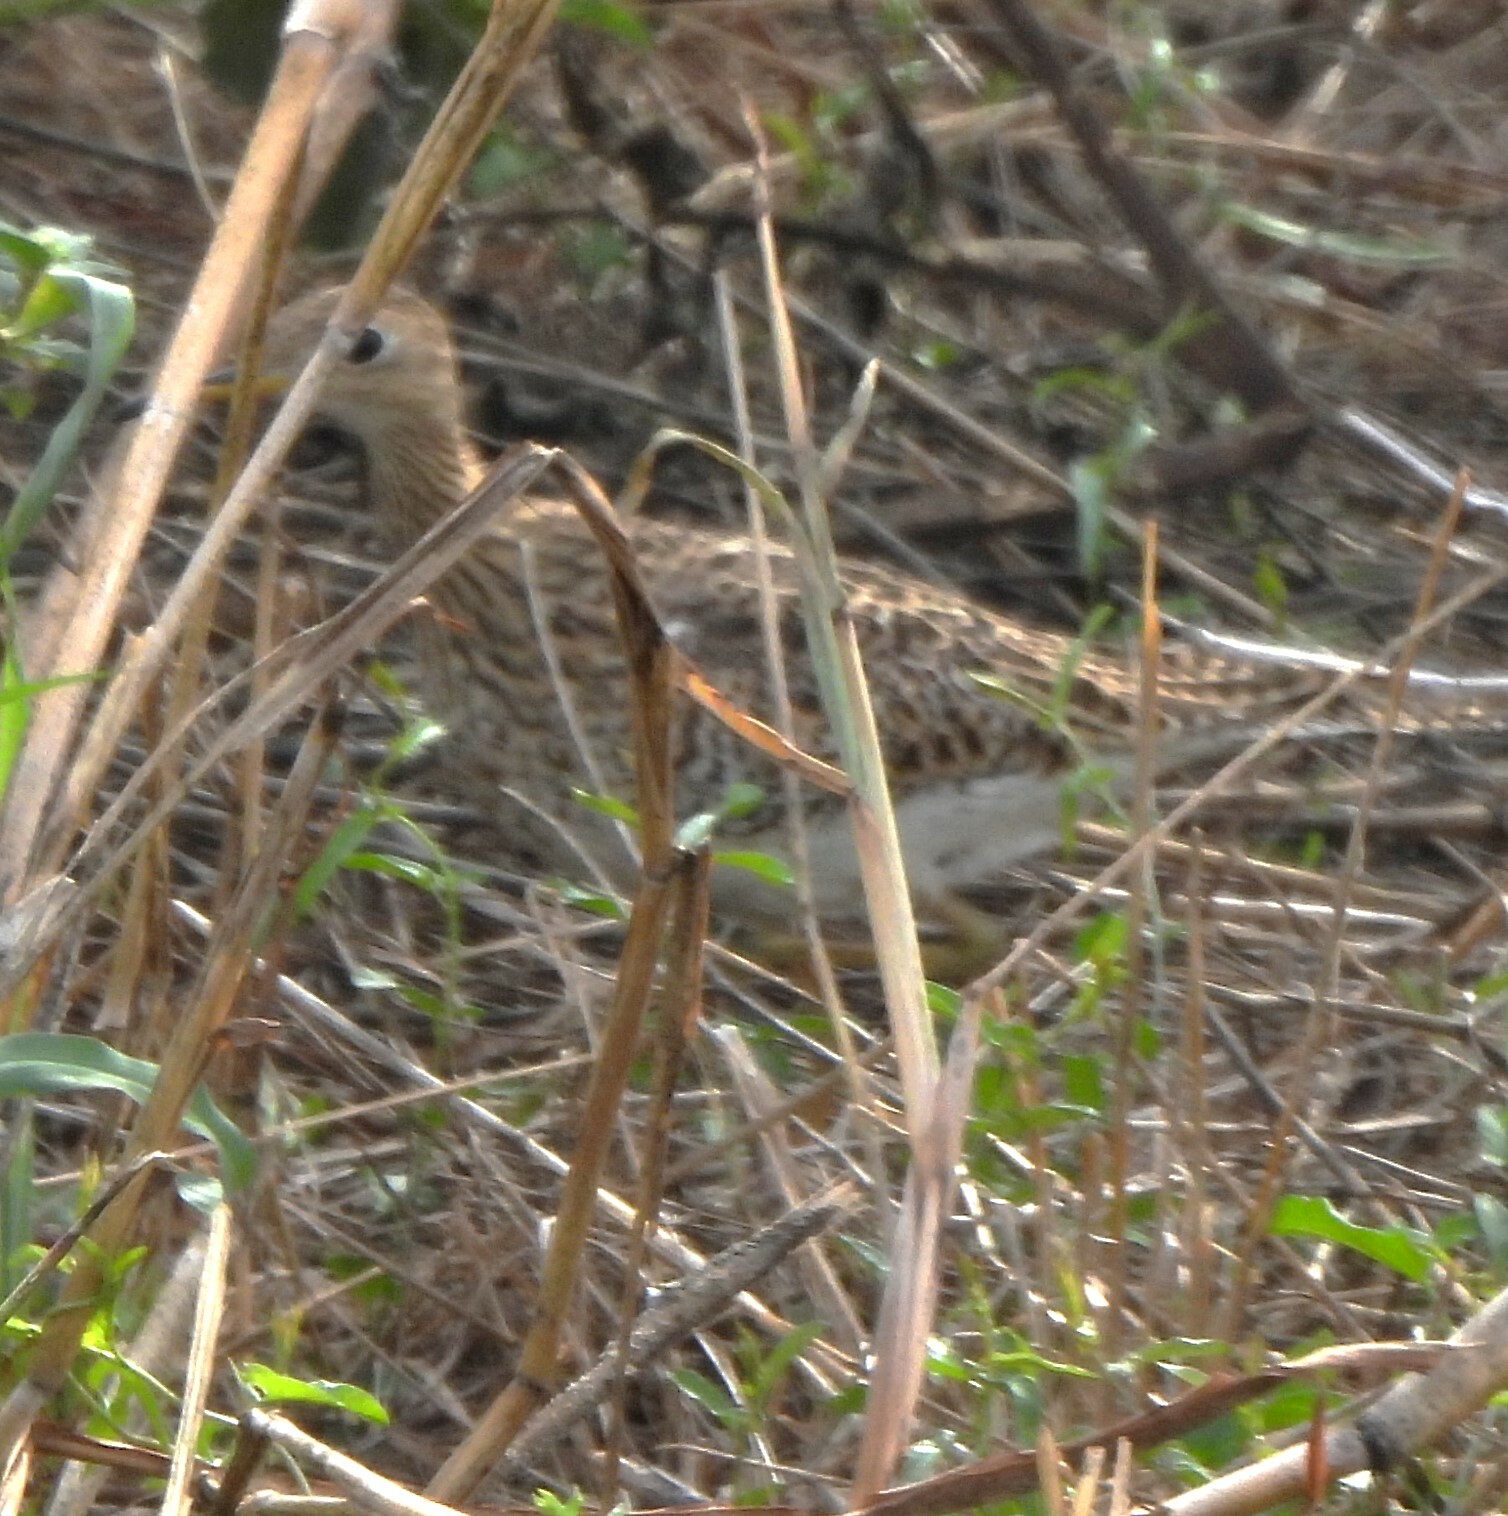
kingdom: Animalia
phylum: Chordata
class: Aves
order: Charadriiformes
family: Scolopacidae
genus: Bartramia
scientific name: Bartramia longicauda
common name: Upland sandpiper
